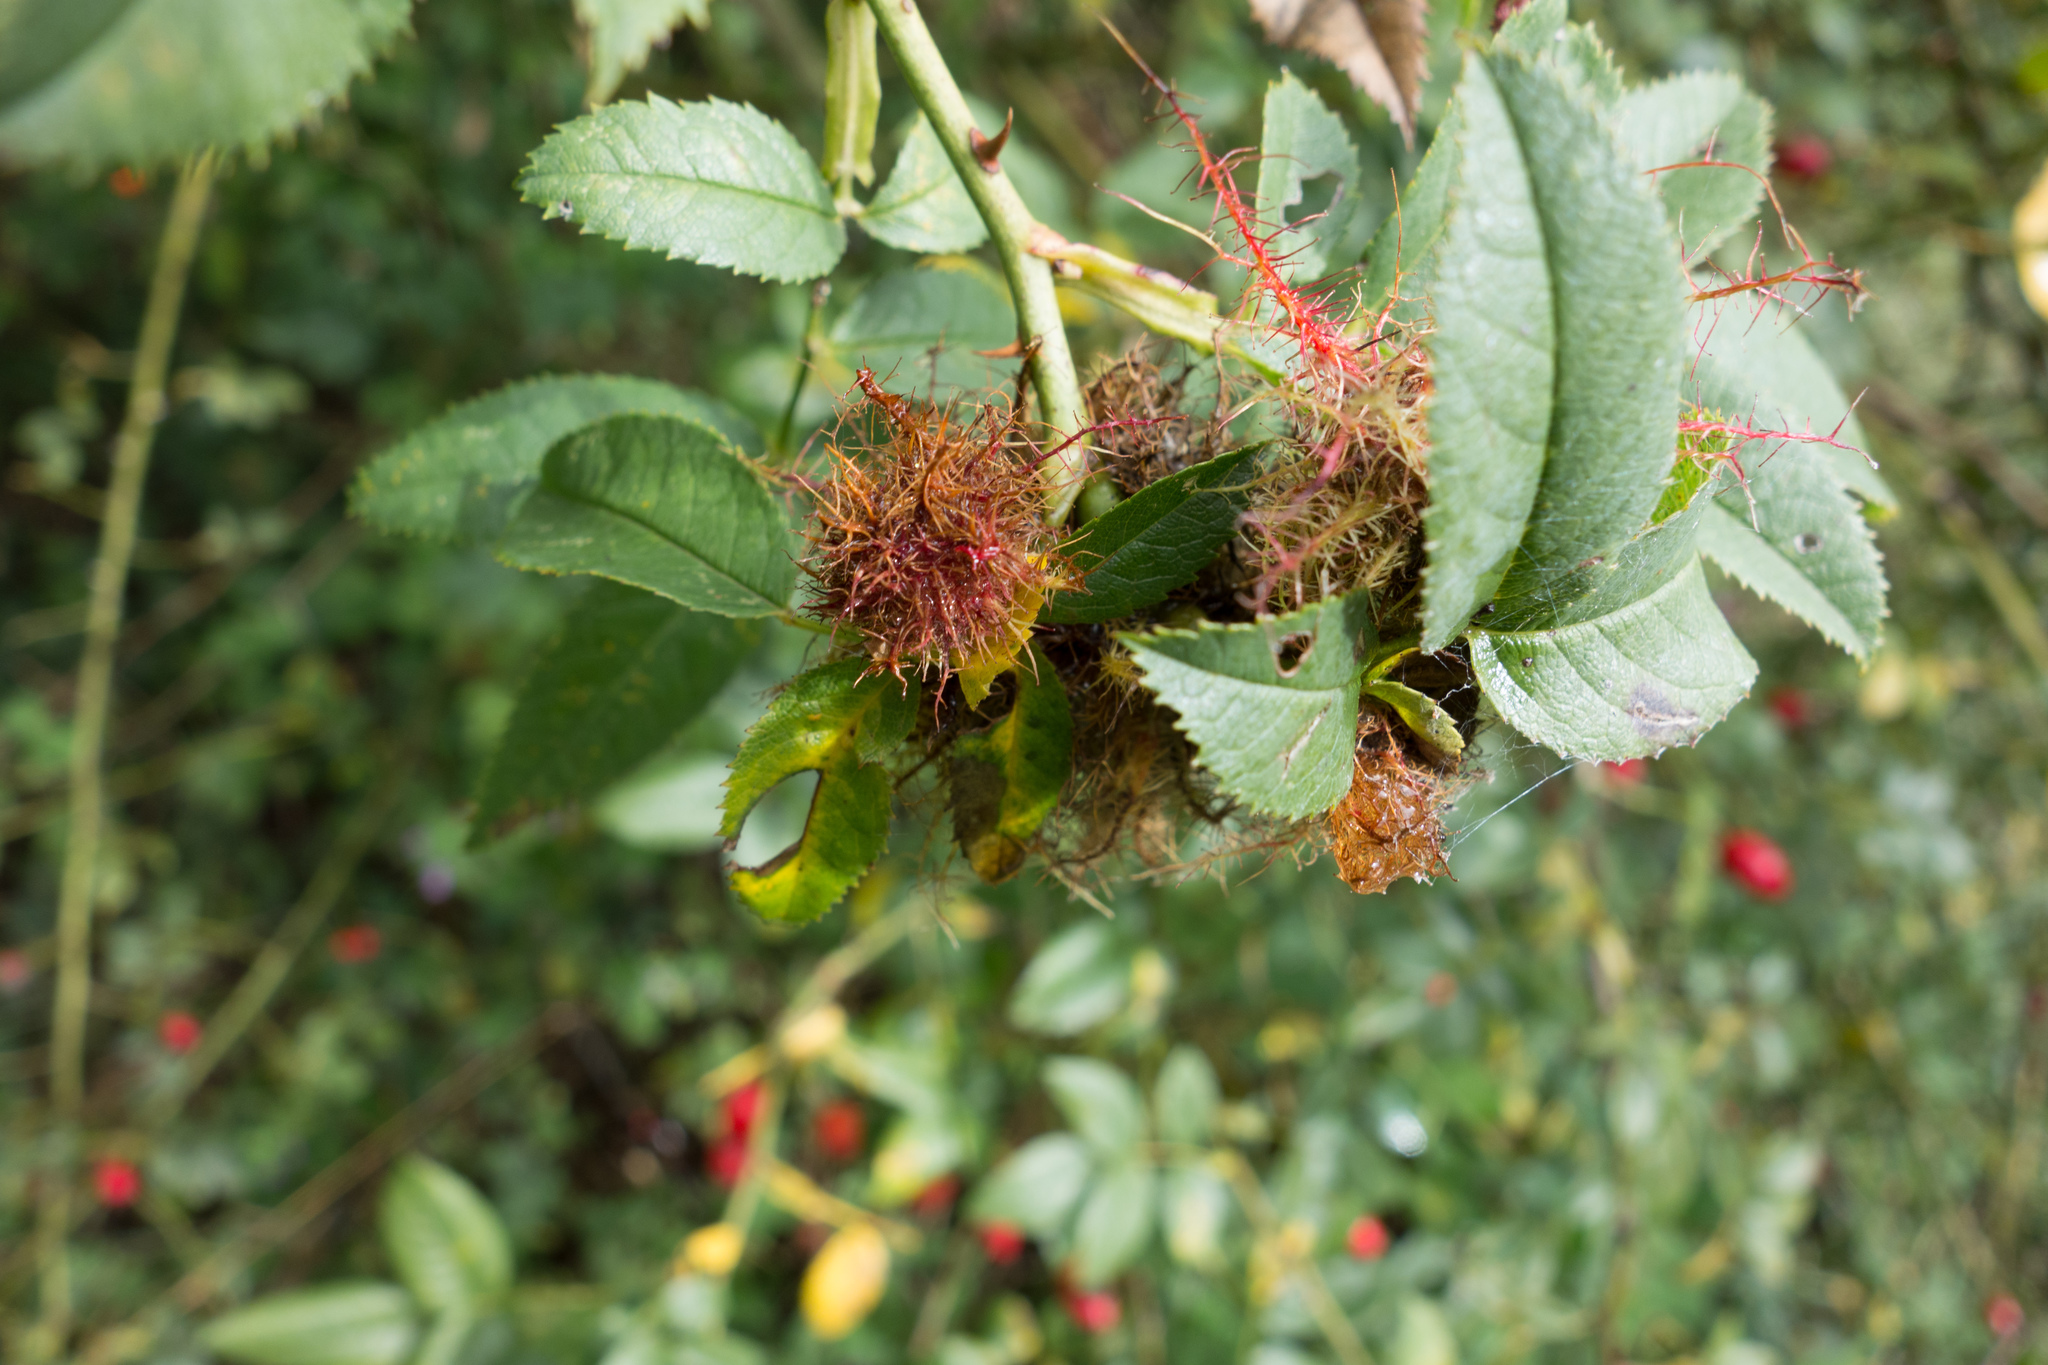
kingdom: Animalia
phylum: Arthropoda
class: Insecta
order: Hymenoptera
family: Cynipidae
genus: Diplolepis
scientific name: Diplolepis rosae
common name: Bedeguar gall
